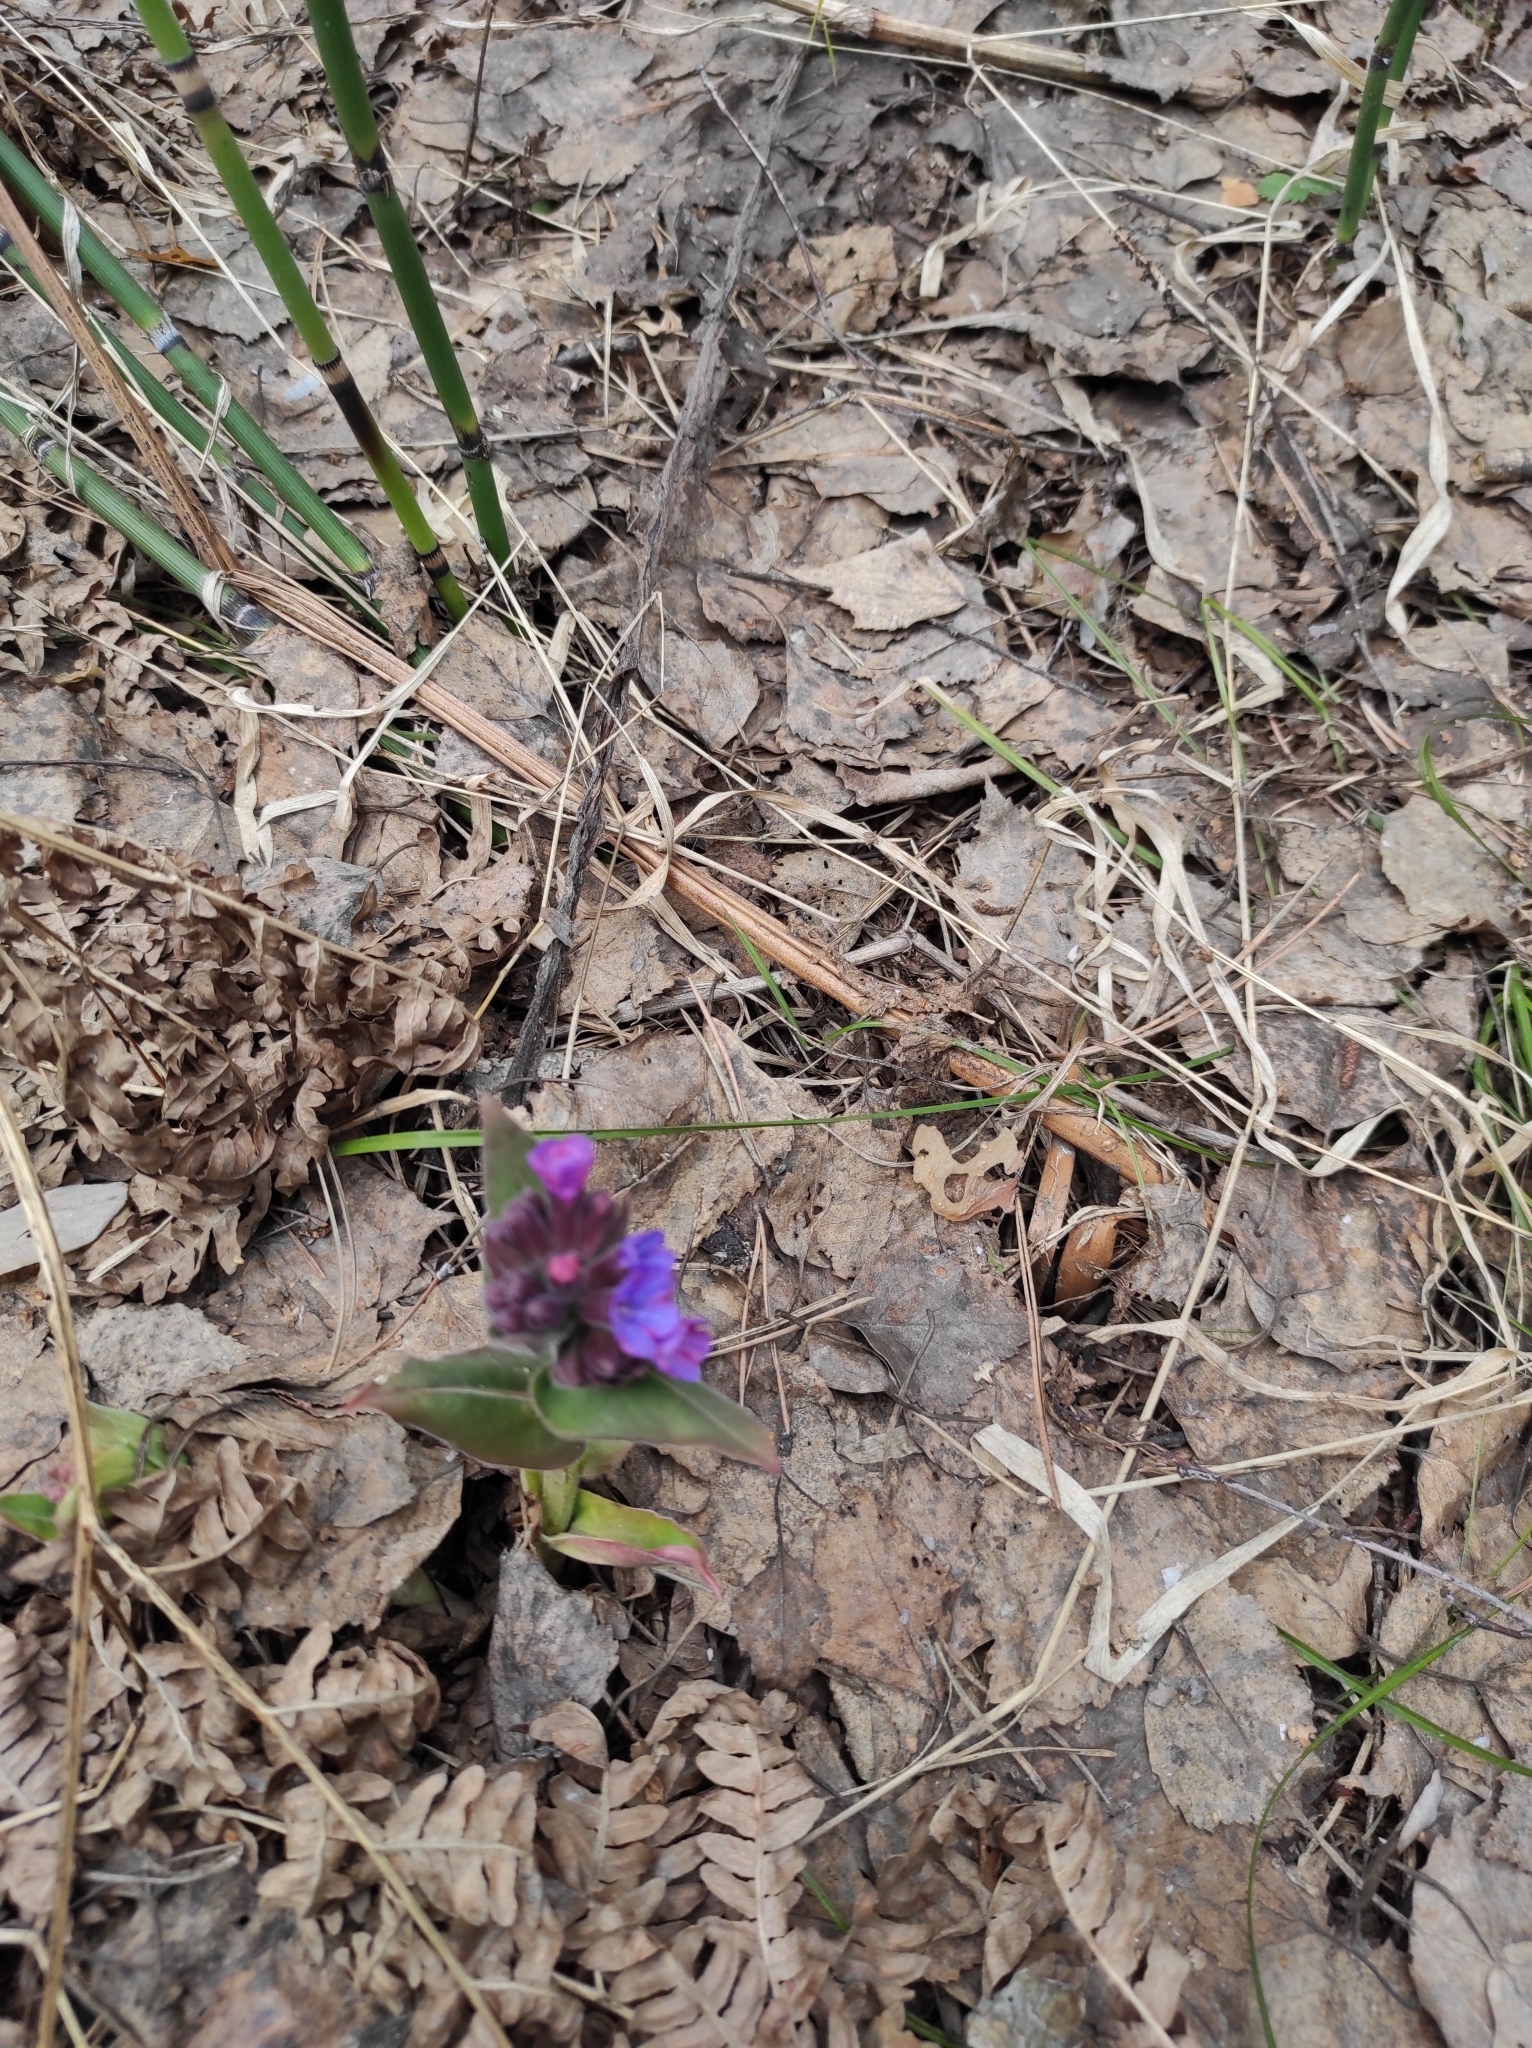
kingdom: Plantae
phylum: Tracheophyta
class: Magnoliopsida
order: Boraginales
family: Boraginaceae
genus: Pulmonaria
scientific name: Pulmonaria mollis
